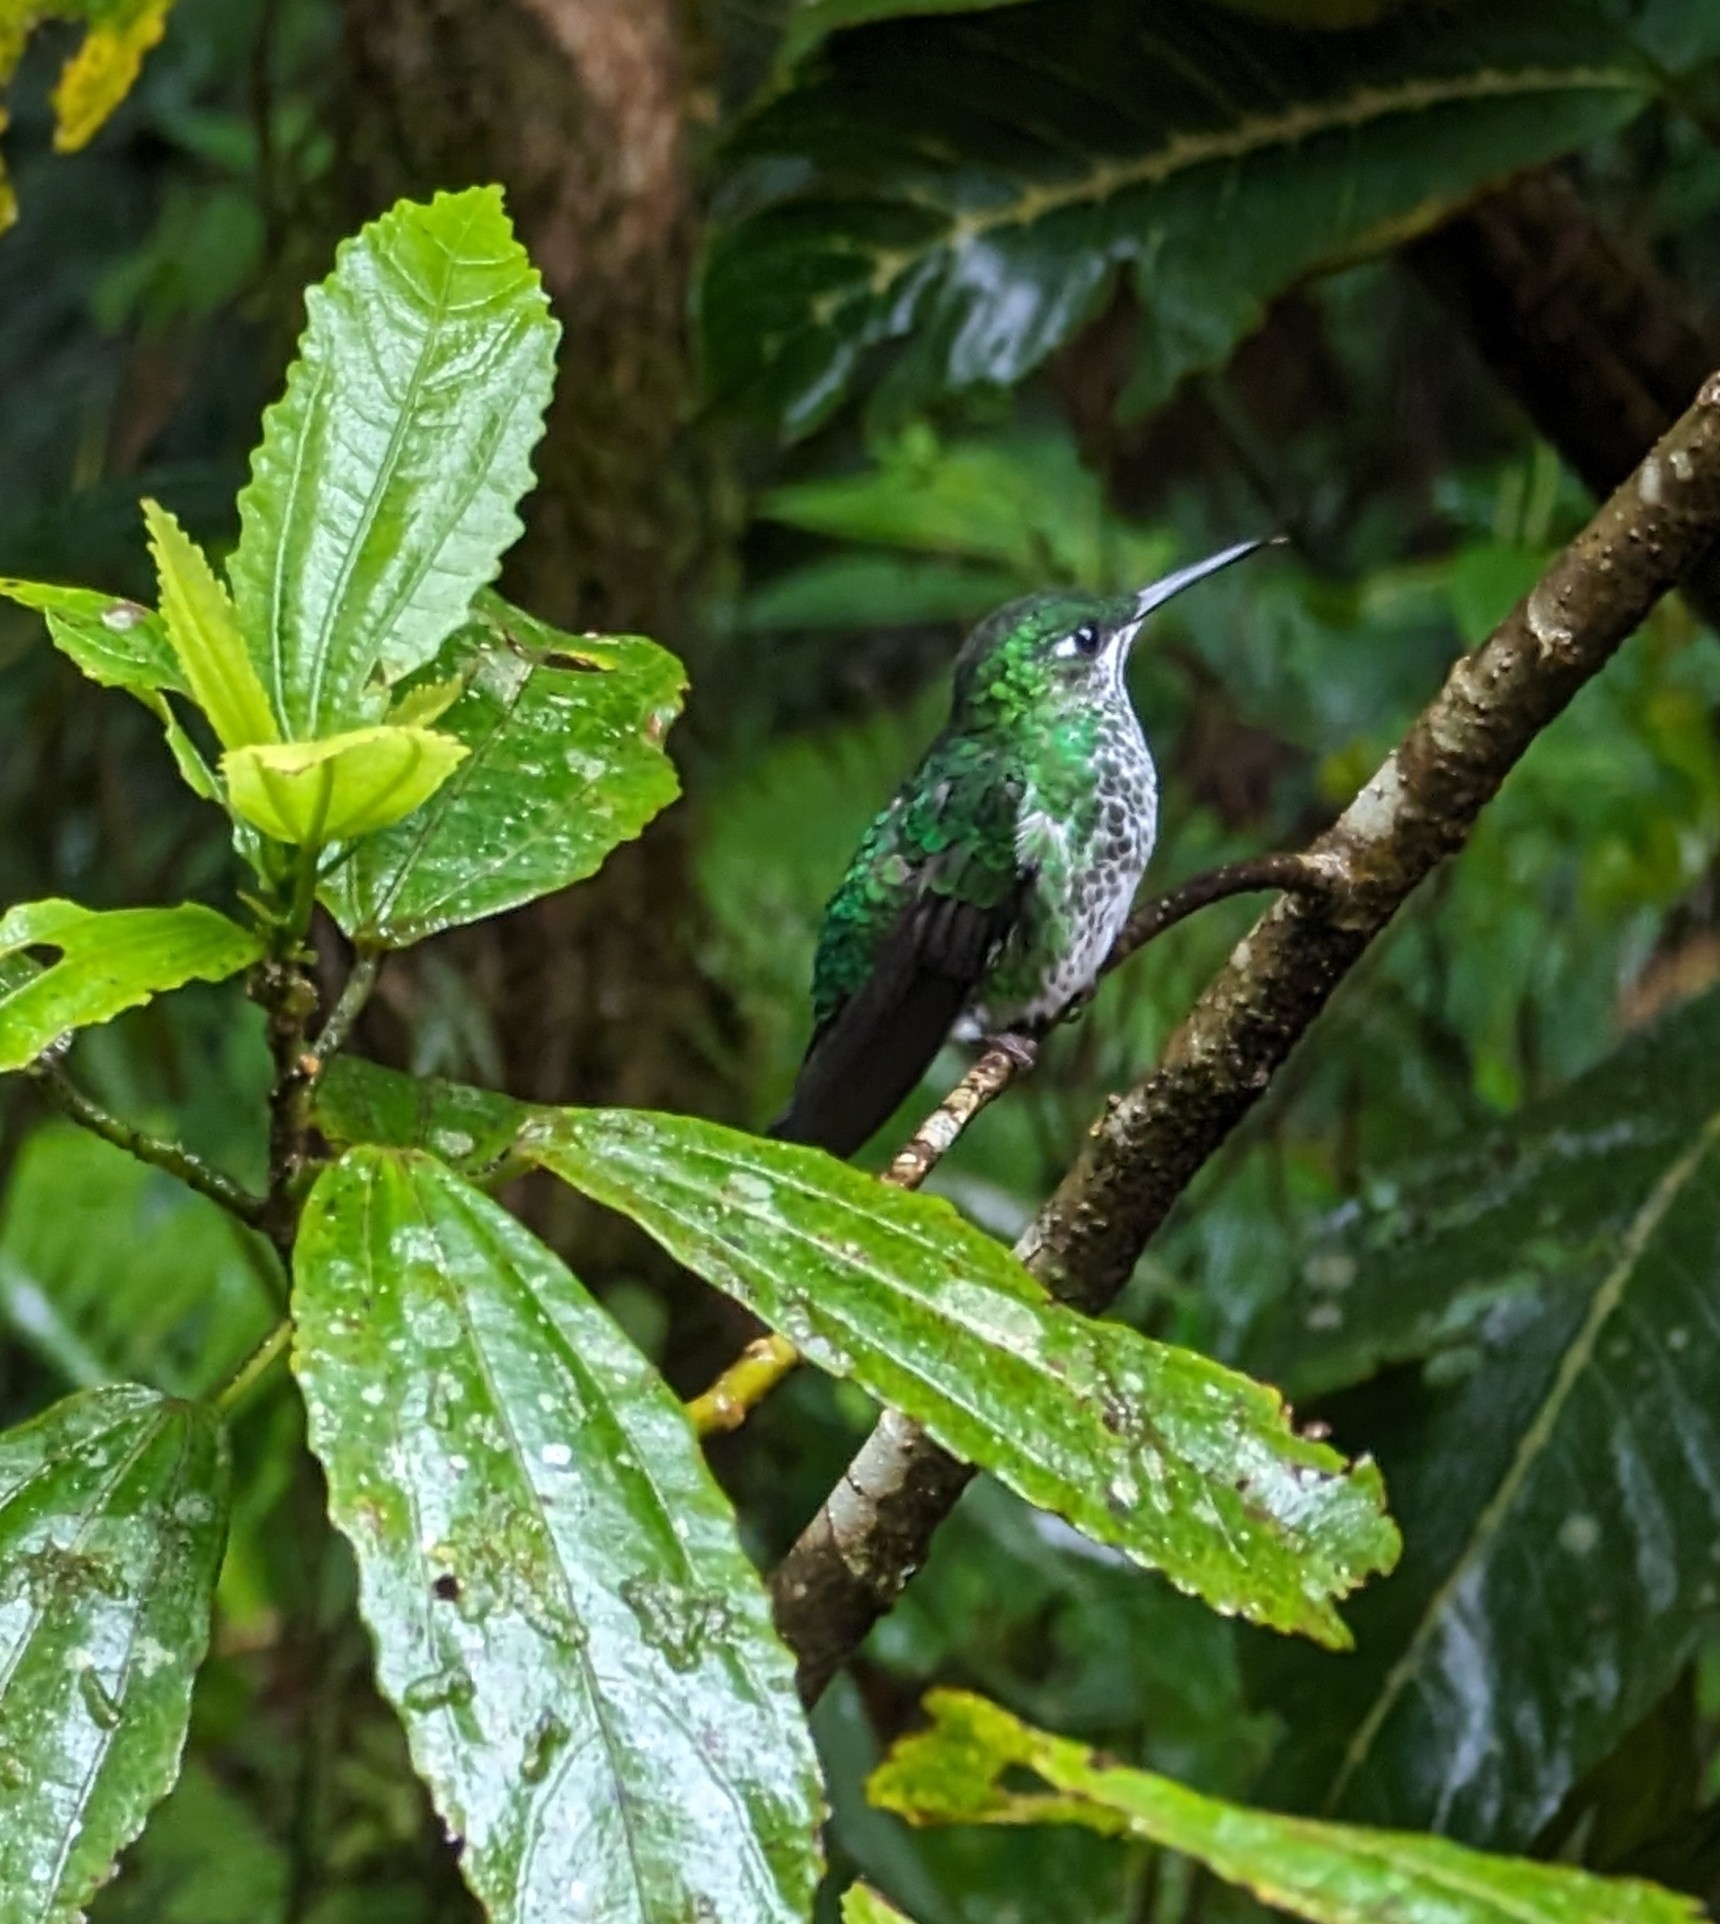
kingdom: Animalia
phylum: Chordata
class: Aves
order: Apodiformes
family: Trochilidae
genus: Heliodoxa
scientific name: Heliodoxa jacula
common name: Green-crowned brilliant
